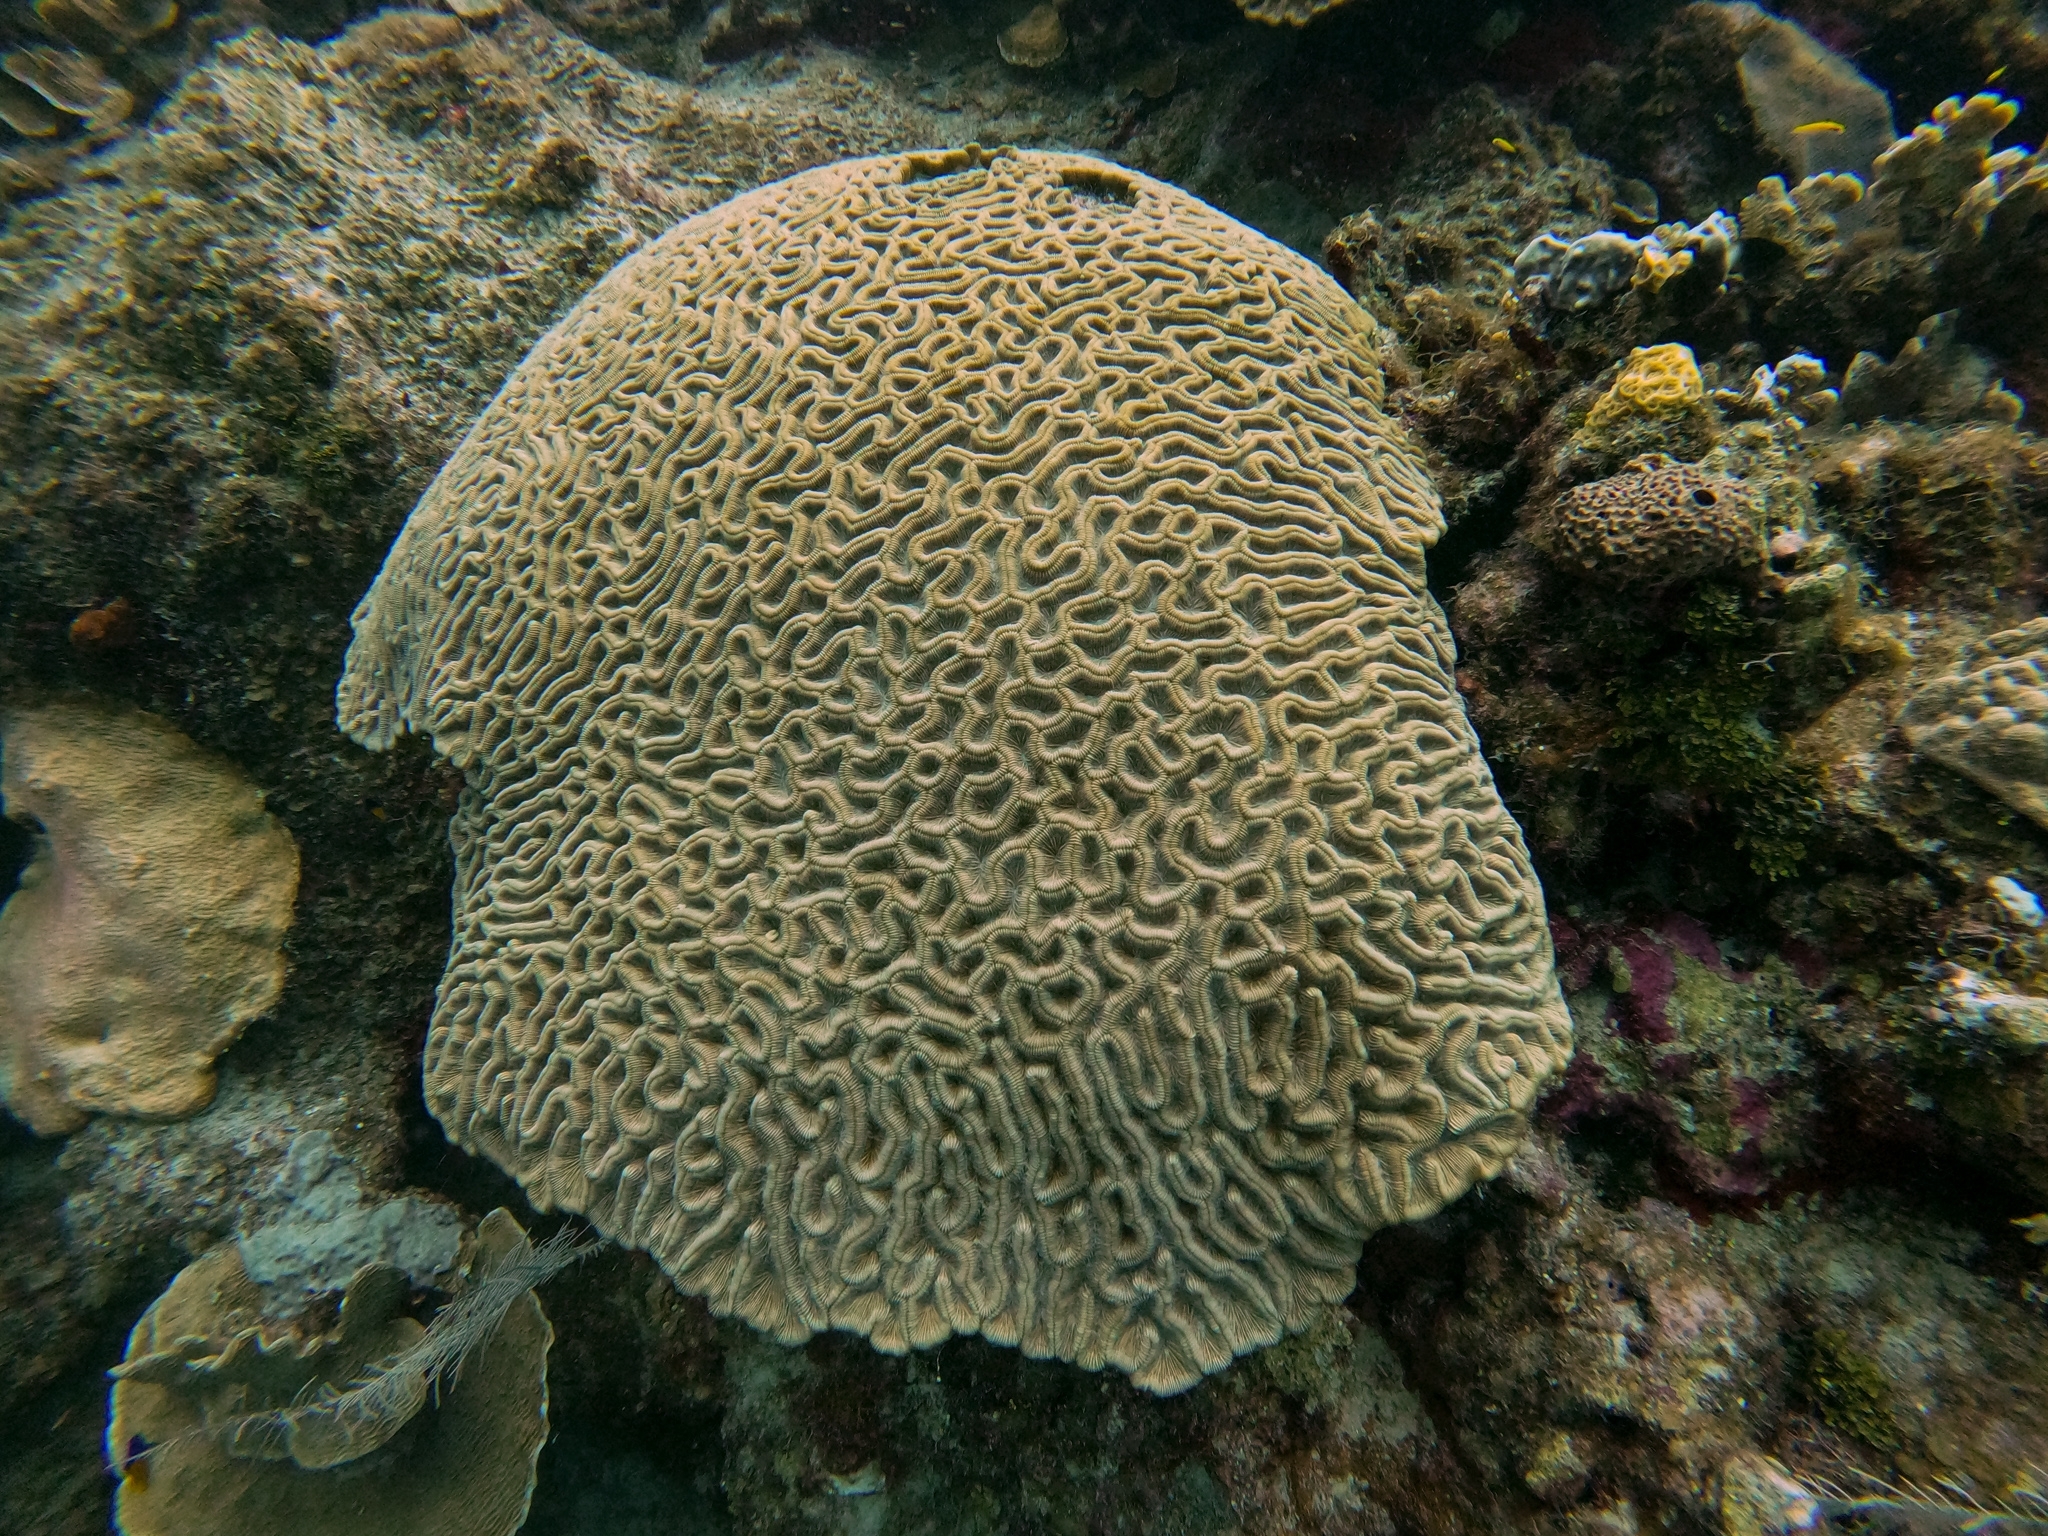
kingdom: Animalia
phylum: Cnidaria
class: Anthozoa
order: Scleractinia
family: Faviidae
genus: Colpophyllia
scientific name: Colpophyllia natans
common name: Boulder brain coral
